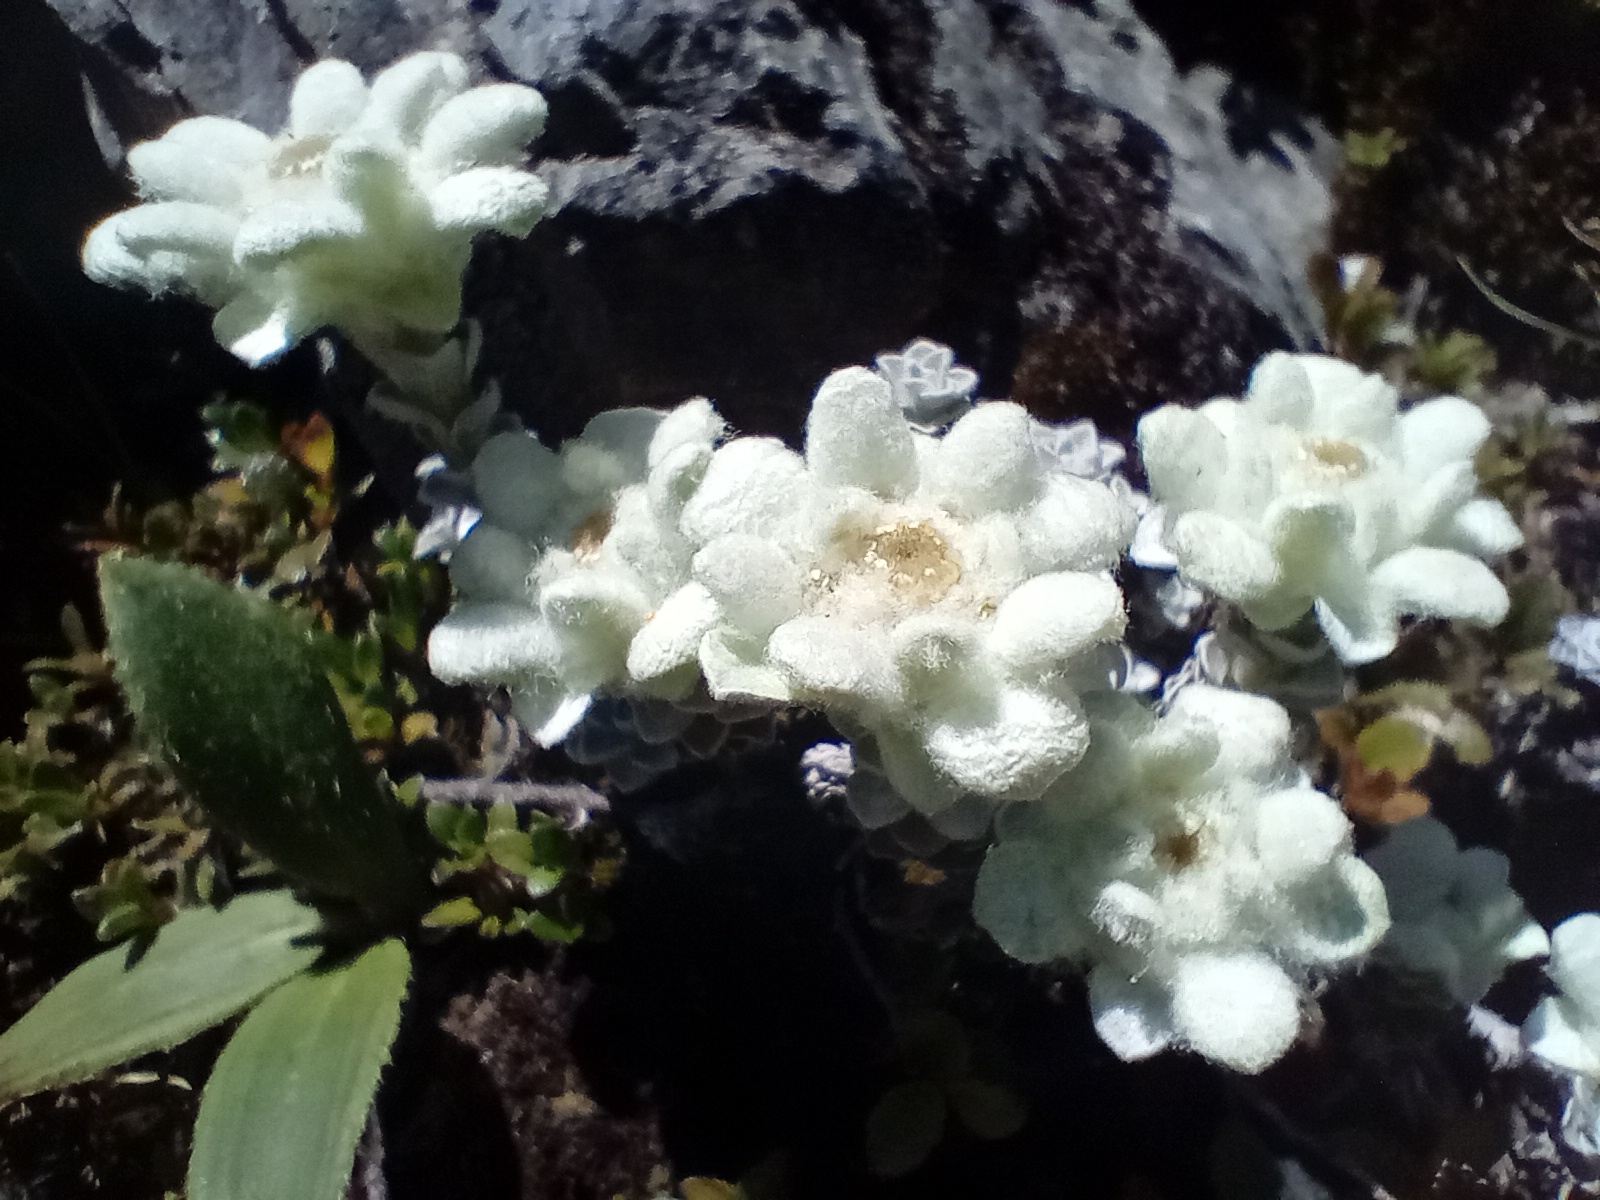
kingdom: Plantae
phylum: Tracheophyta
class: Magnoliopsida
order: Asterales
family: Asteraceae
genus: Leucogenes
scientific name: Leucogenes grandiceps
